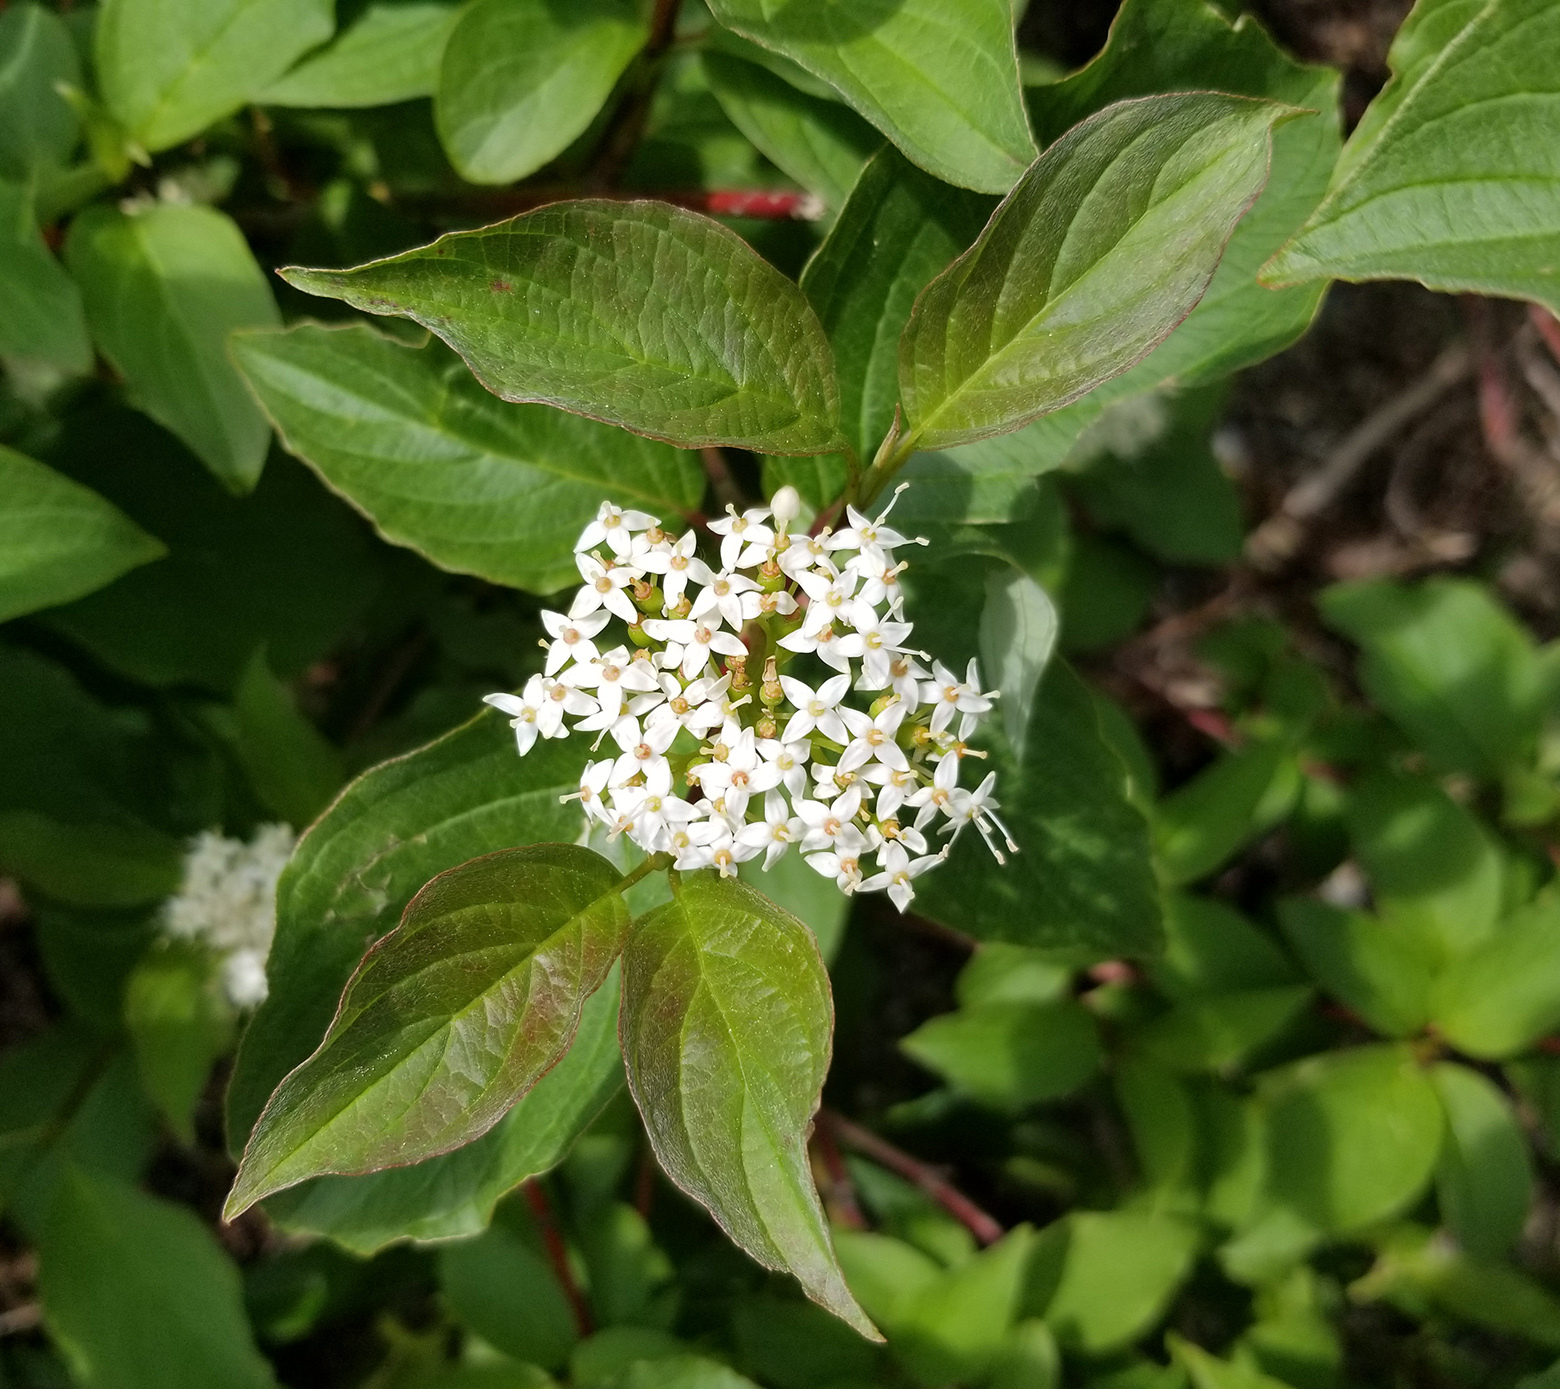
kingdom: Plantae
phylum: Tracheophyta
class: Magnoliopsida
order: Cornales
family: Cornaceae
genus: Cornus
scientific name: Cornus sericea
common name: Red-osier dogwood
